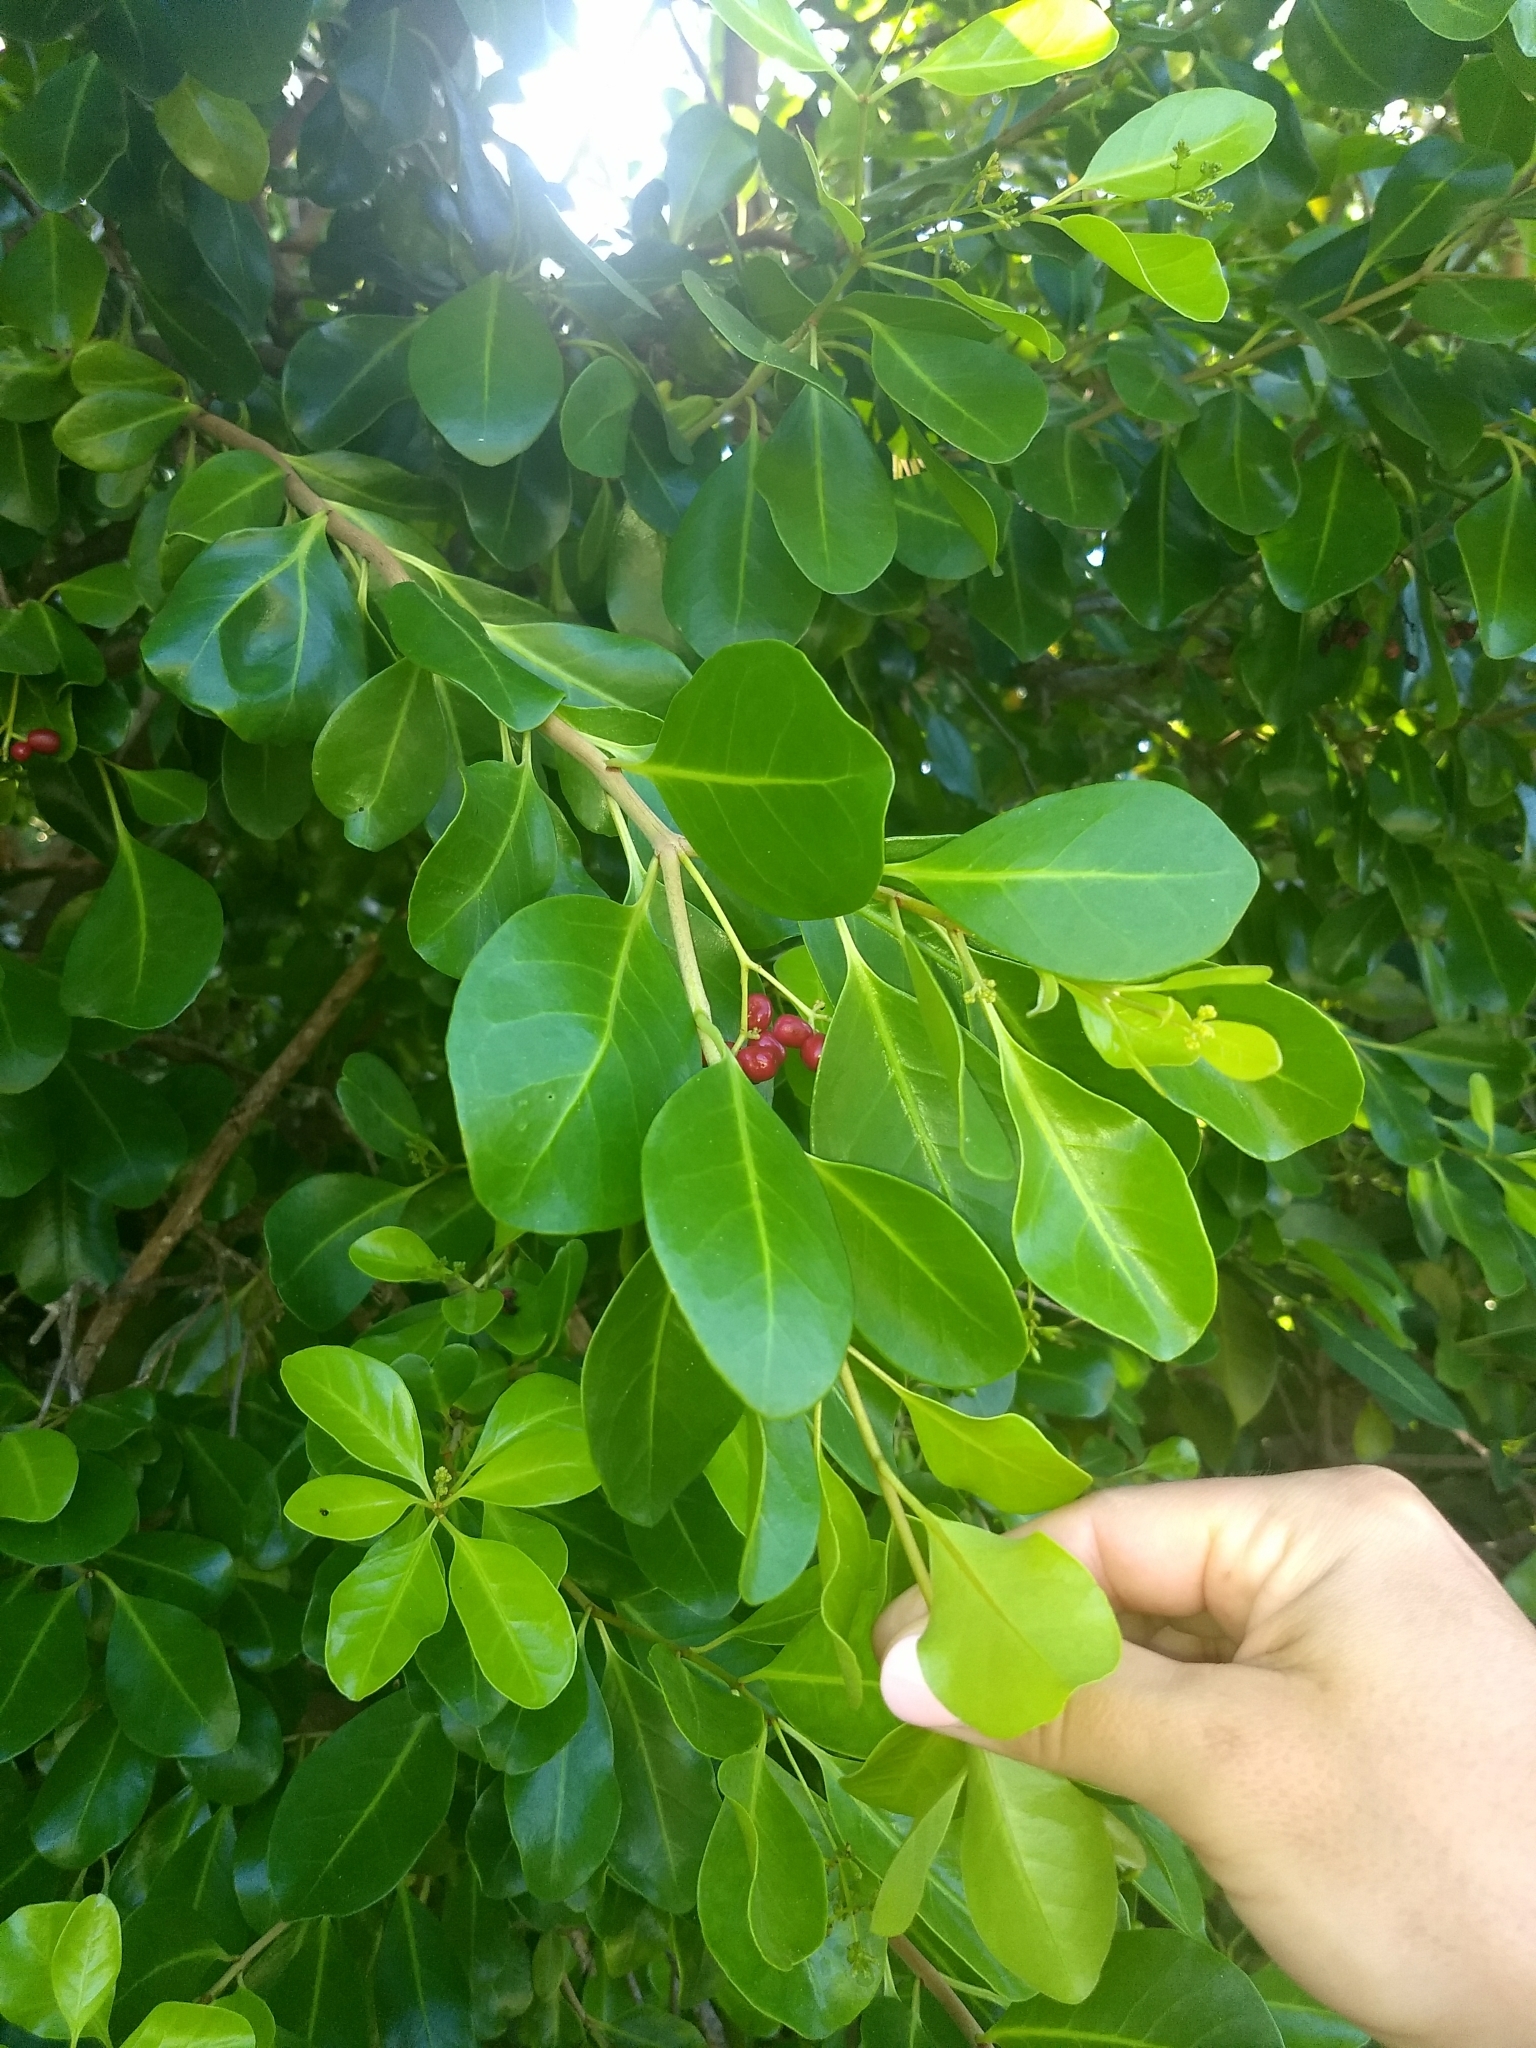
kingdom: Plantae
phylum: Tracheophyta
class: Magnoliopsida
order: Caryophyllales
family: Nyctaginaceae
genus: Guapira
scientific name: Guapira discolor
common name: Beeftree
